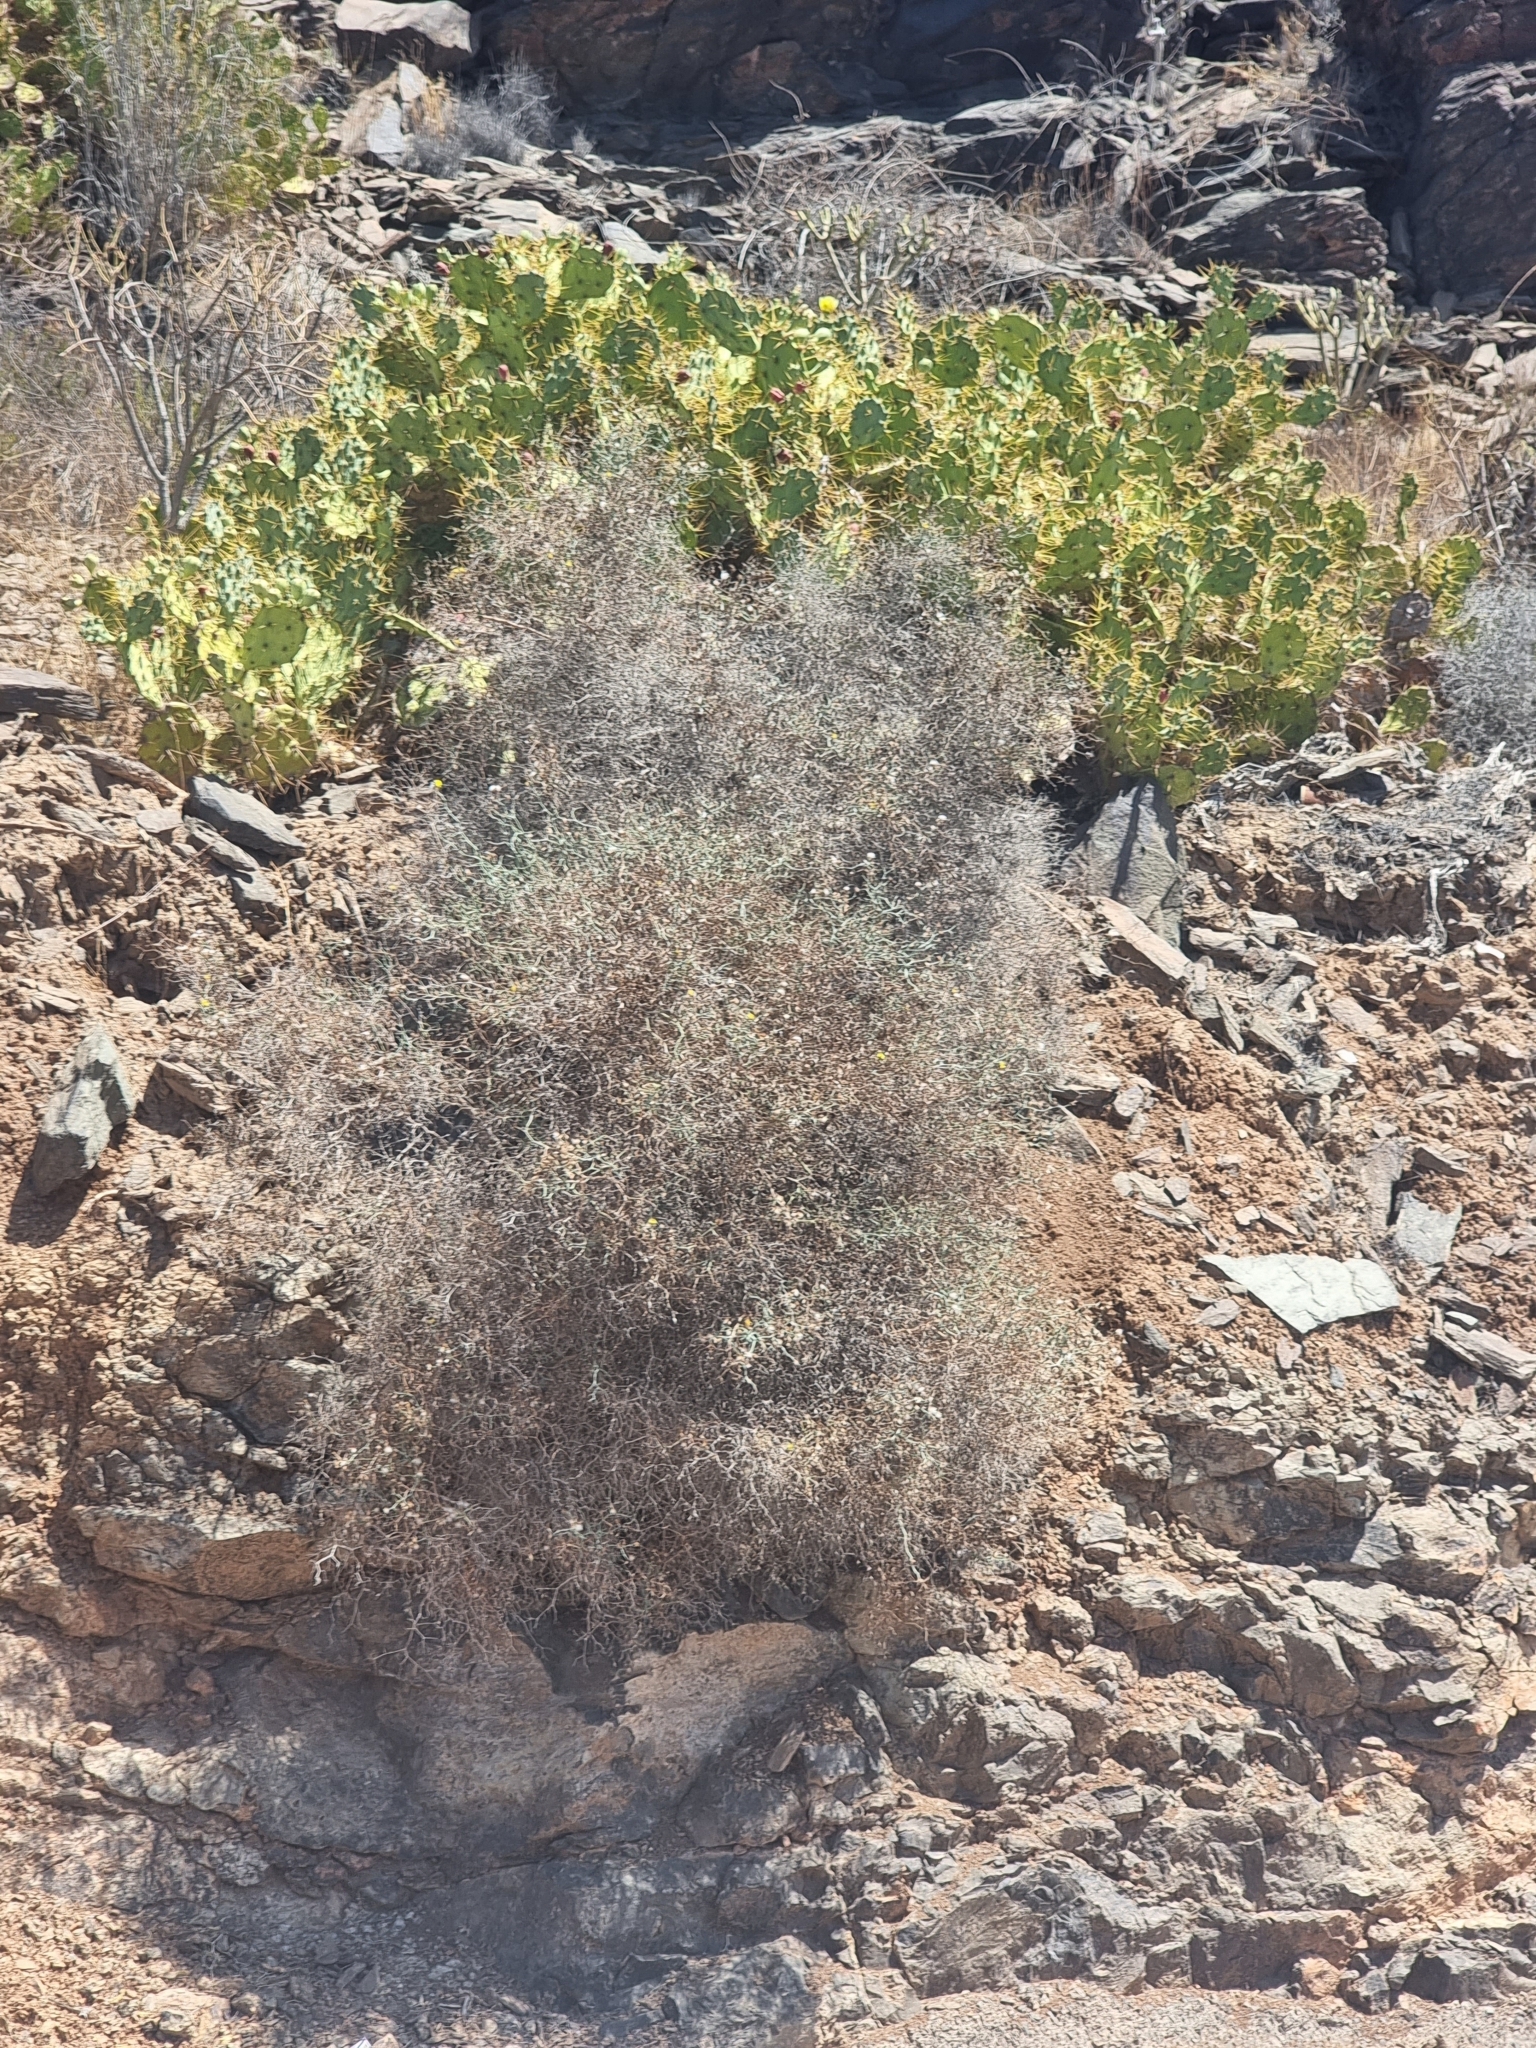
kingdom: Plantae
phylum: Tracheophyta
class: Magnoliopsida
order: Asterales
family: Asteraceae
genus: Launaea
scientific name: Launaea arborescens
